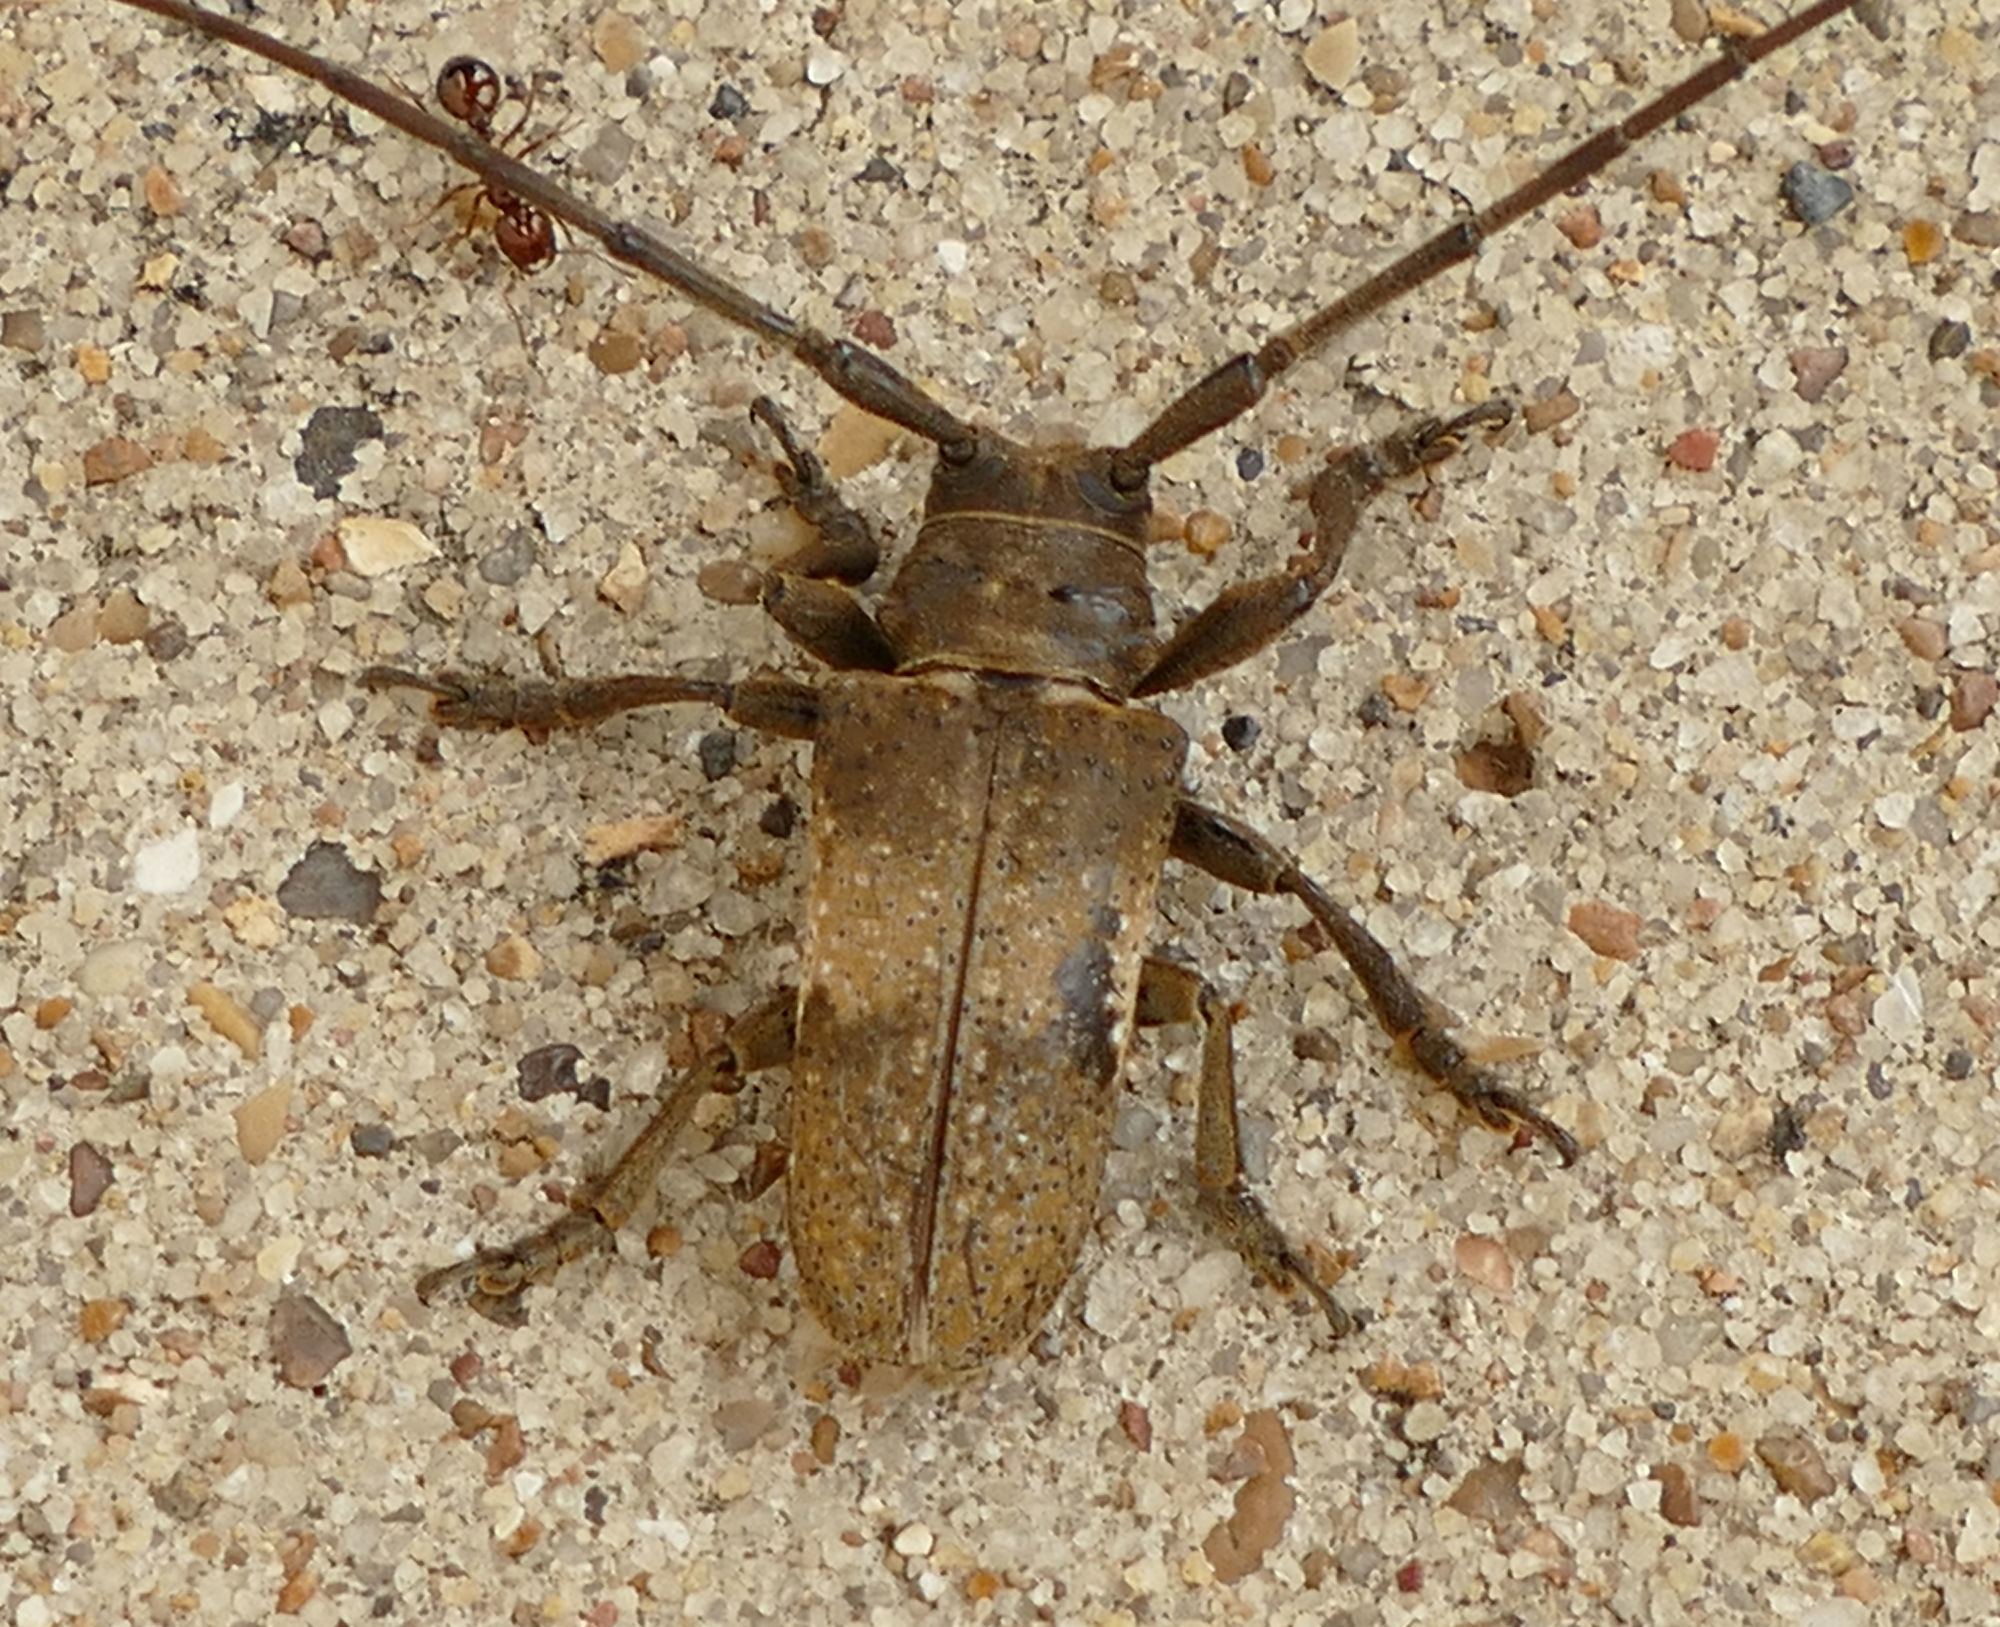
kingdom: Animalia
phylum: Arthropoda
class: Insecta
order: Coleoptera
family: Cerambycidae
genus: Oncideres
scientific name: Oncideres pustulata
